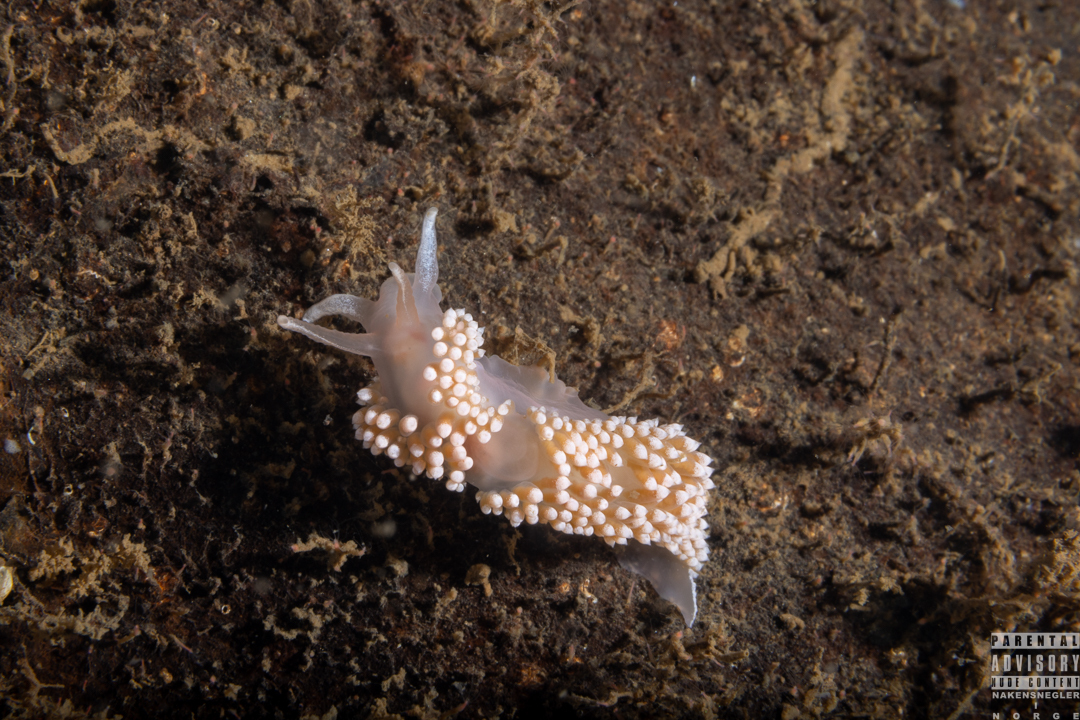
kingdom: Animalia
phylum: Mollusca
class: Gastropoda
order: Nudibranchia
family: Coryphellidae
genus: Coryphella
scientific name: Coryphella verrucosa
